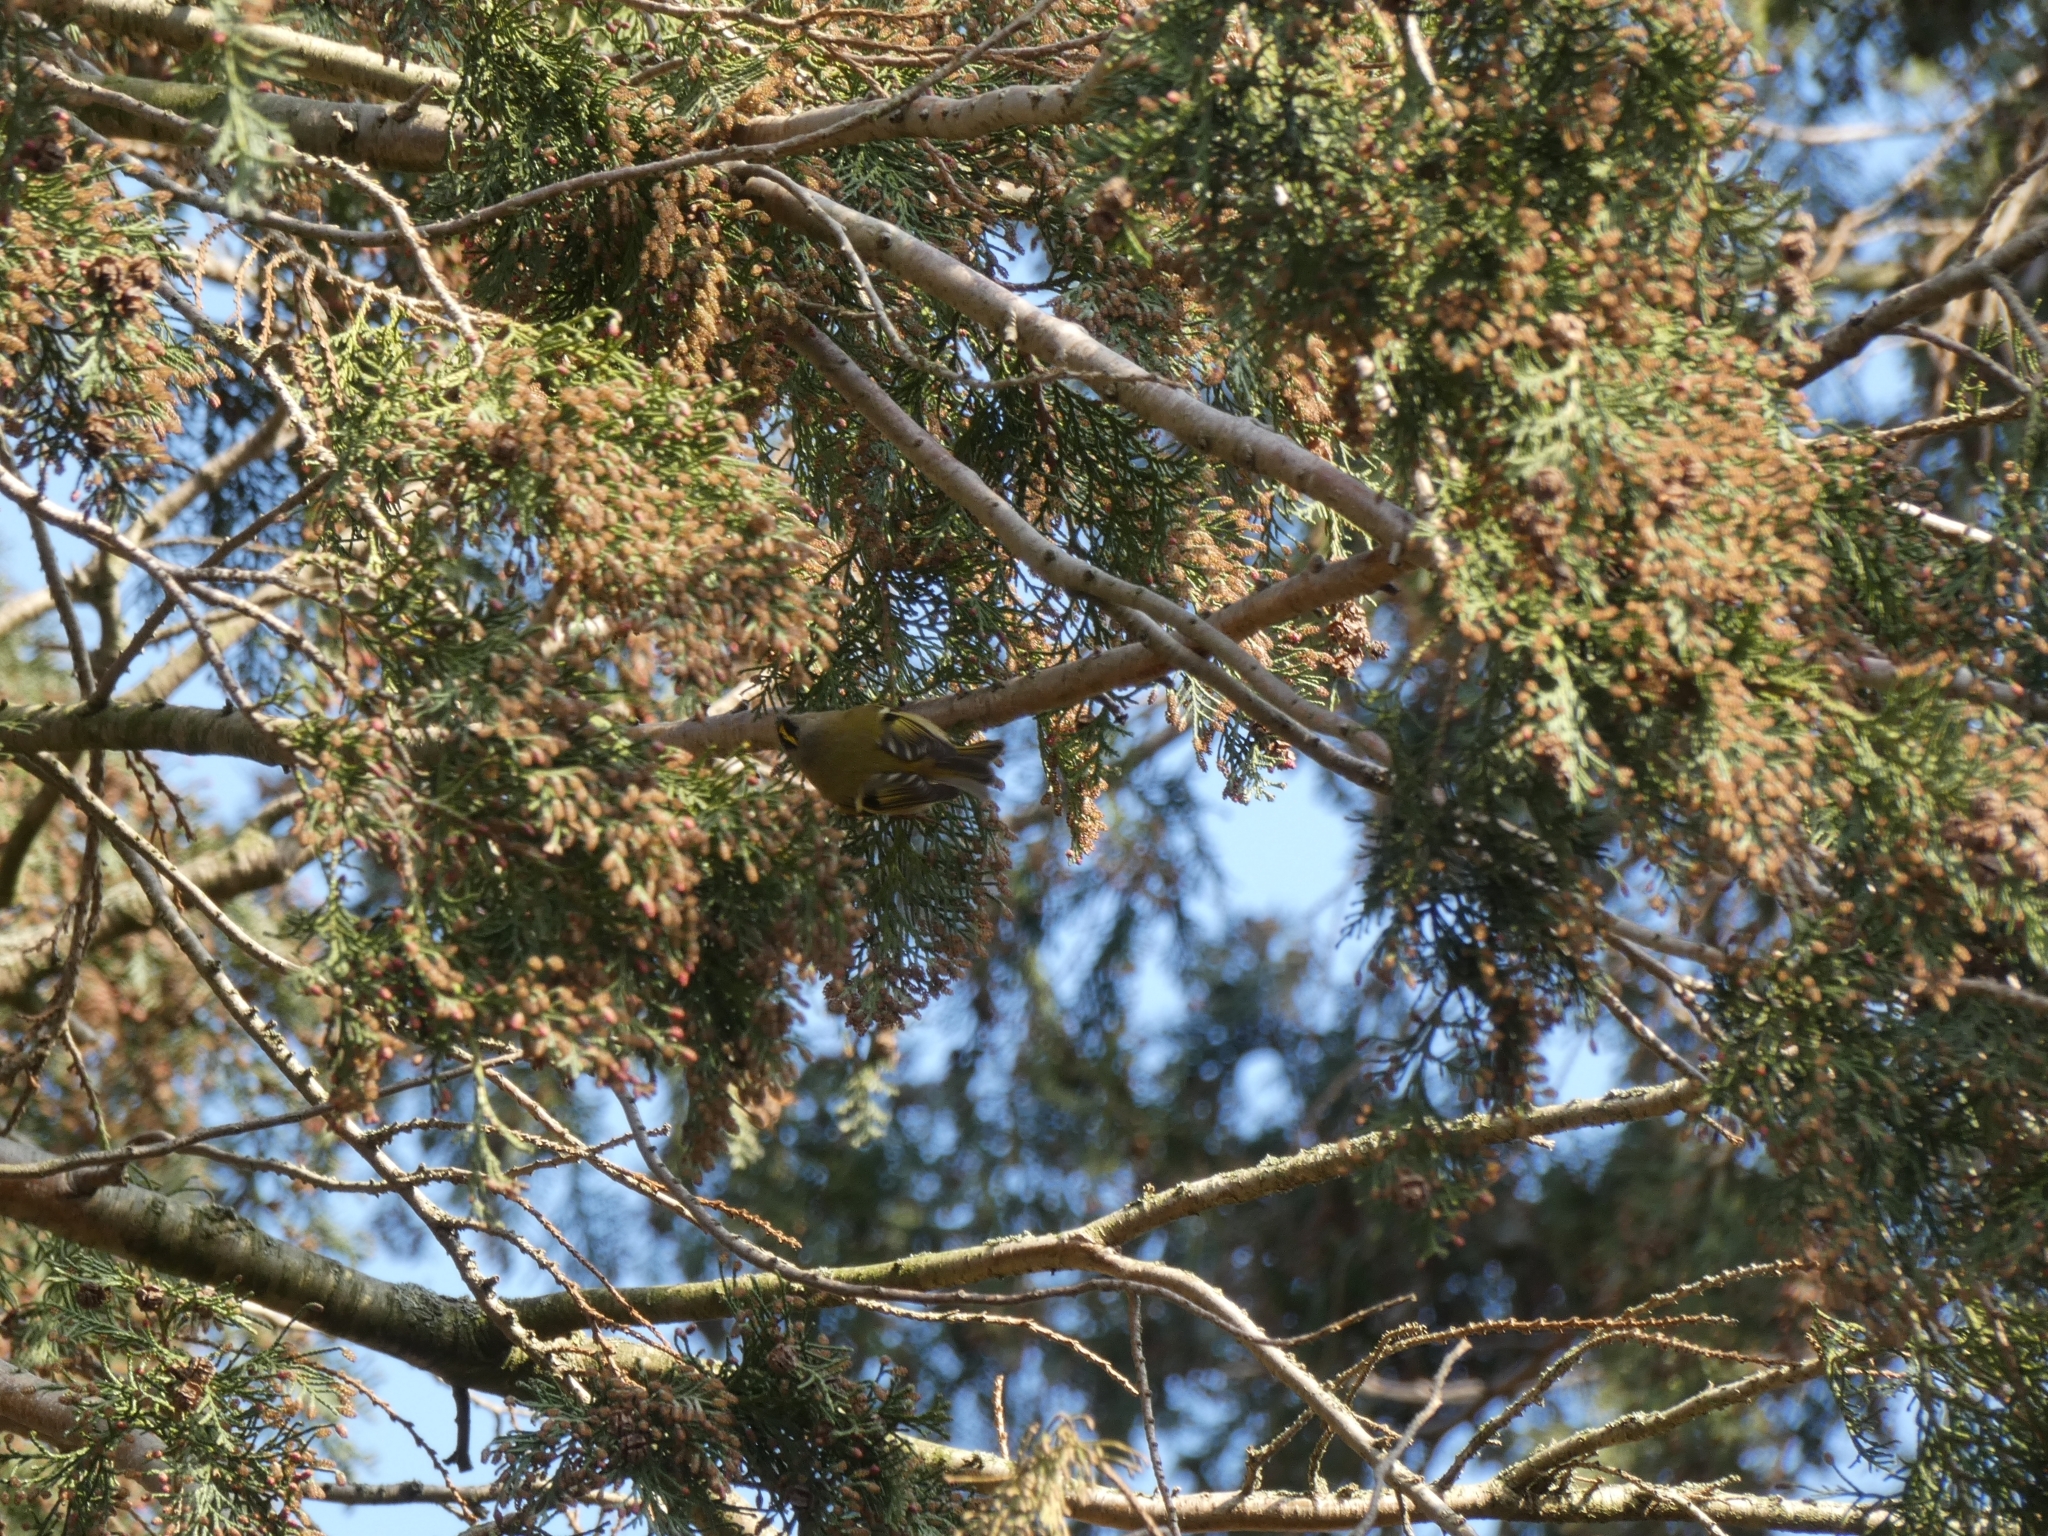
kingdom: Animalia
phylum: Chordata
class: Aves
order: Passeriformes
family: Regulidae
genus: Regulus
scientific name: Regulus ignicapilla
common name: Firecrest
